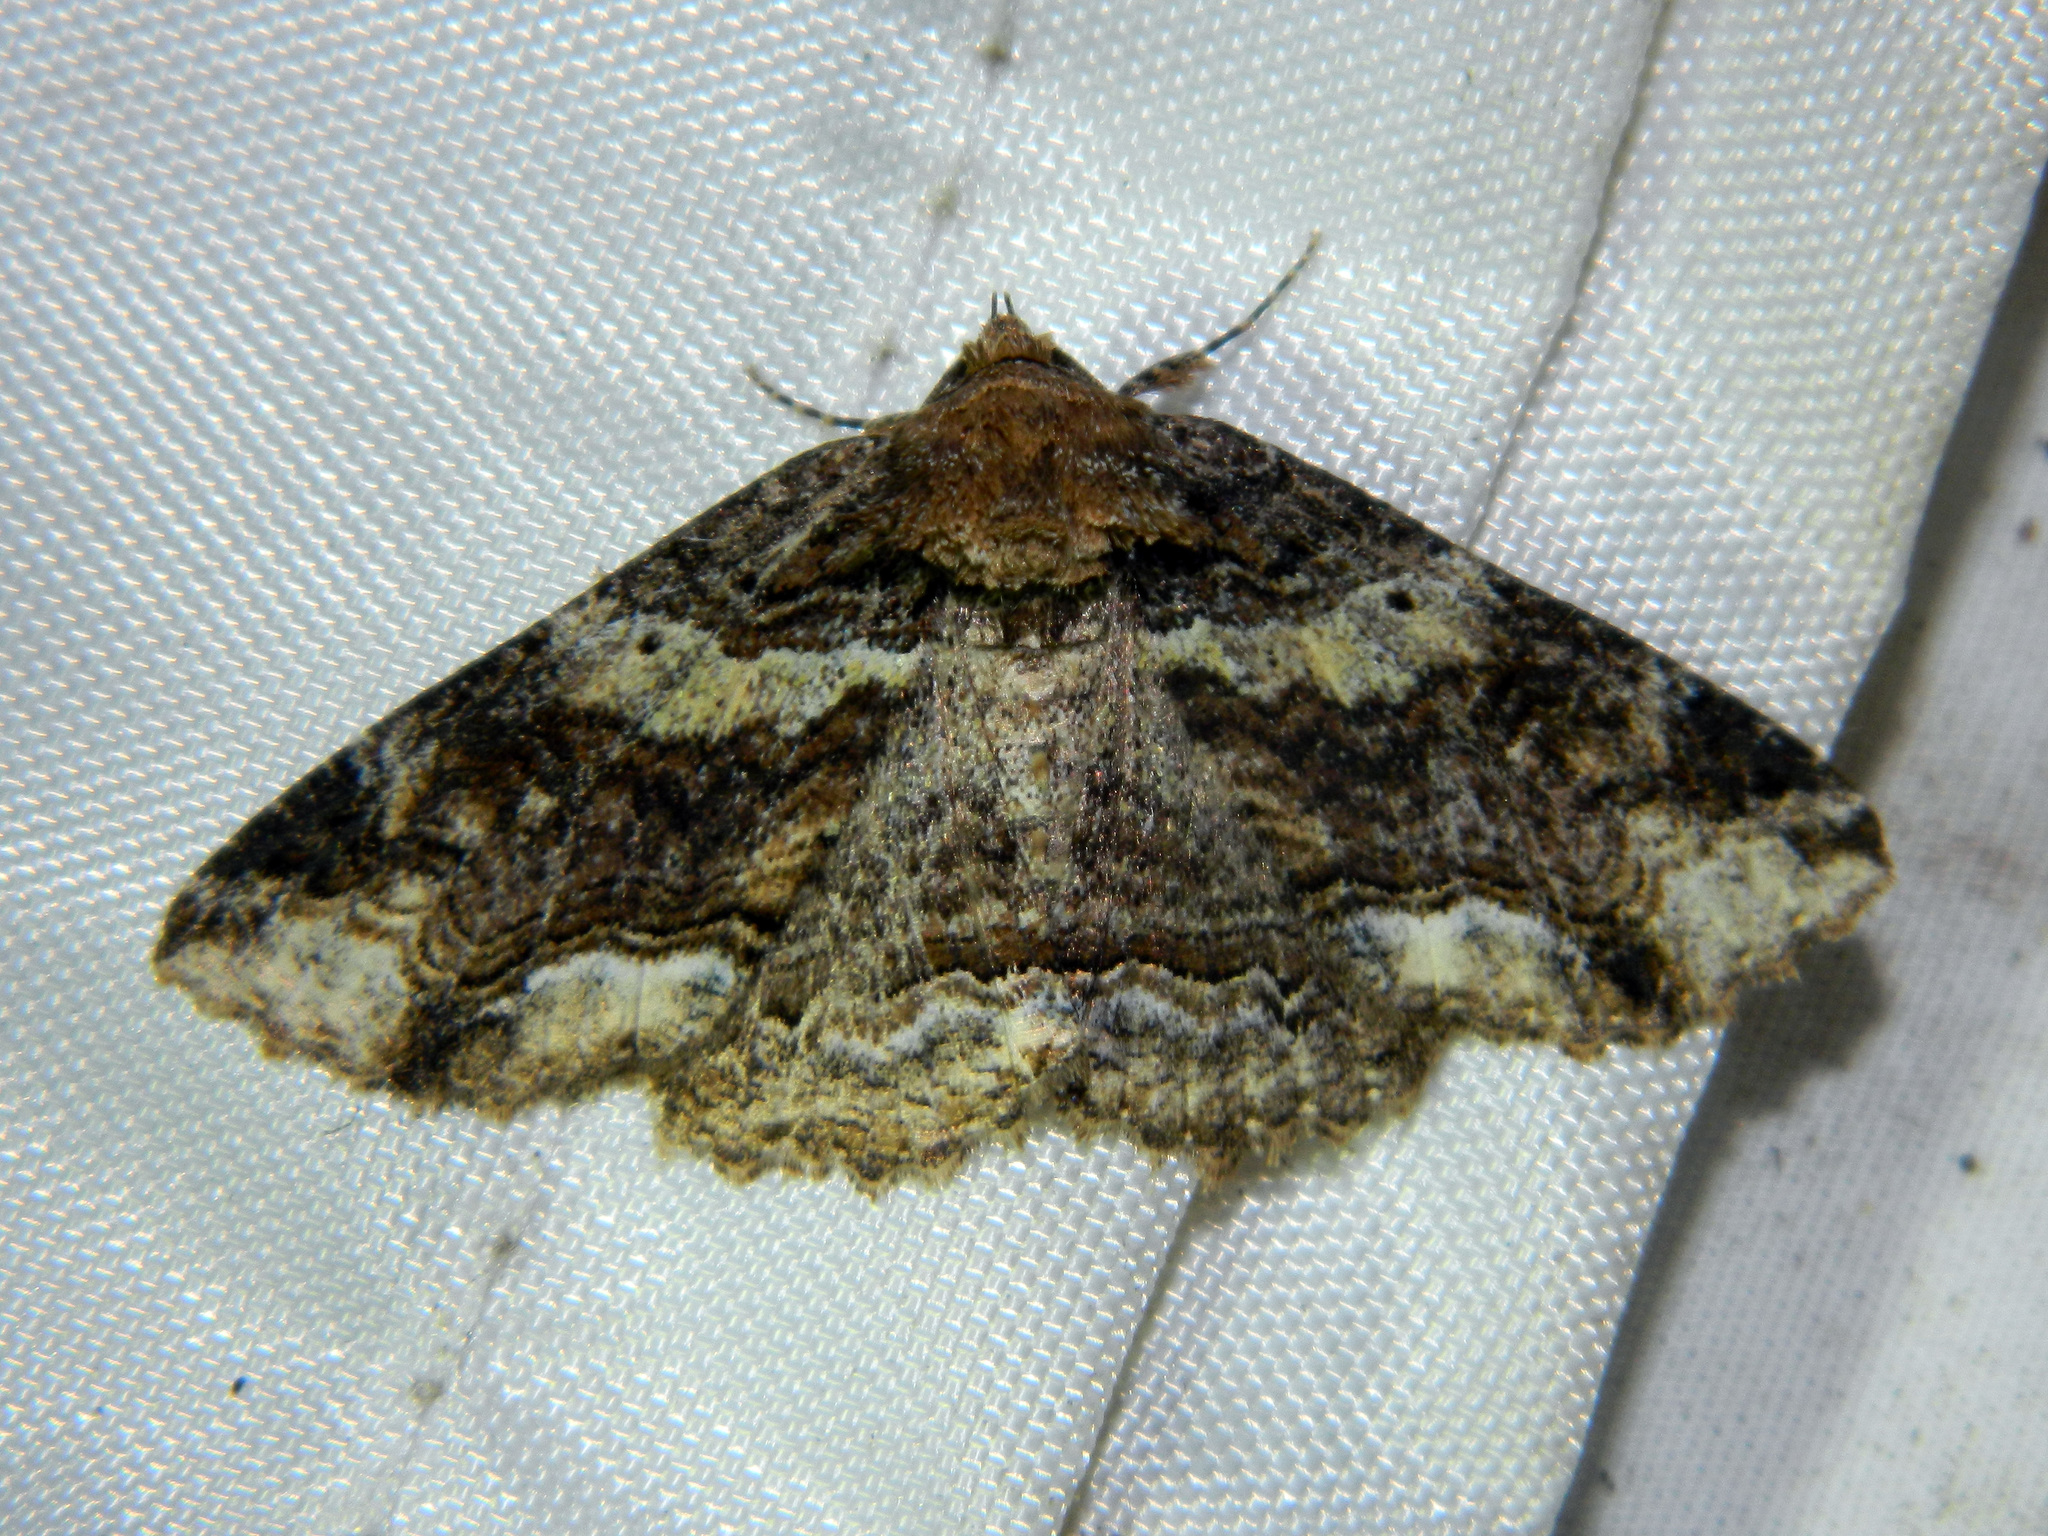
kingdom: Animalia
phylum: Arthropoda
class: Insecta
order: Lepidoptera
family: Erebidae
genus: Zale
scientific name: Zale minerea
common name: Colorful zale moth
